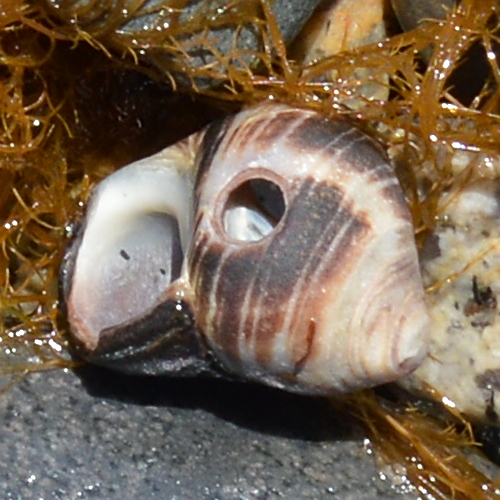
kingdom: Animalia
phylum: Mollusca
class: Gastropoda
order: Littorinimorpha
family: Littorinidae
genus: Littorina
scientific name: Littorina littorea
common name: Common periwinkle
